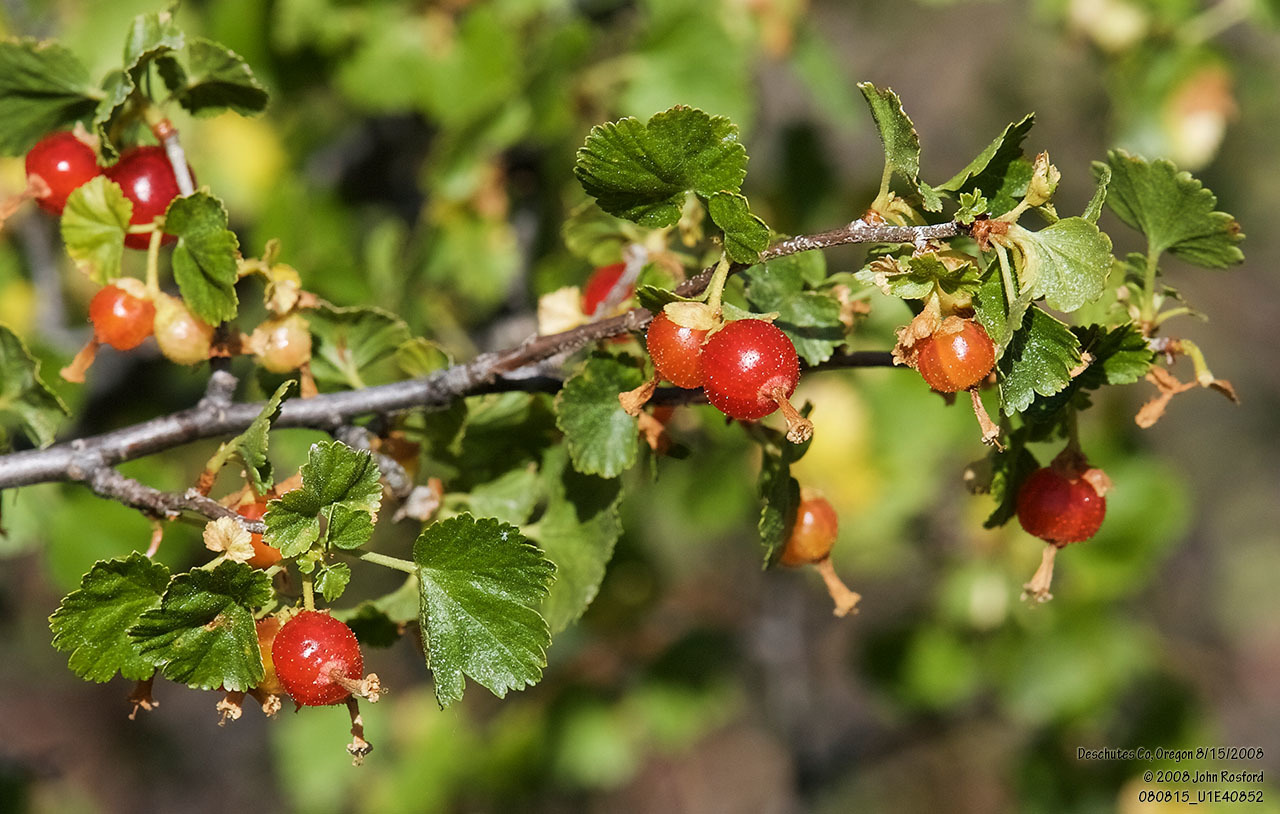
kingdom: Plantae
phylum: Tracheophyta
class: Magnoliopsida
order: Saxifragales
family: Grossulariaceae
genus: Ribes
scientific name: Ribes cereum
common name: Wax currant
